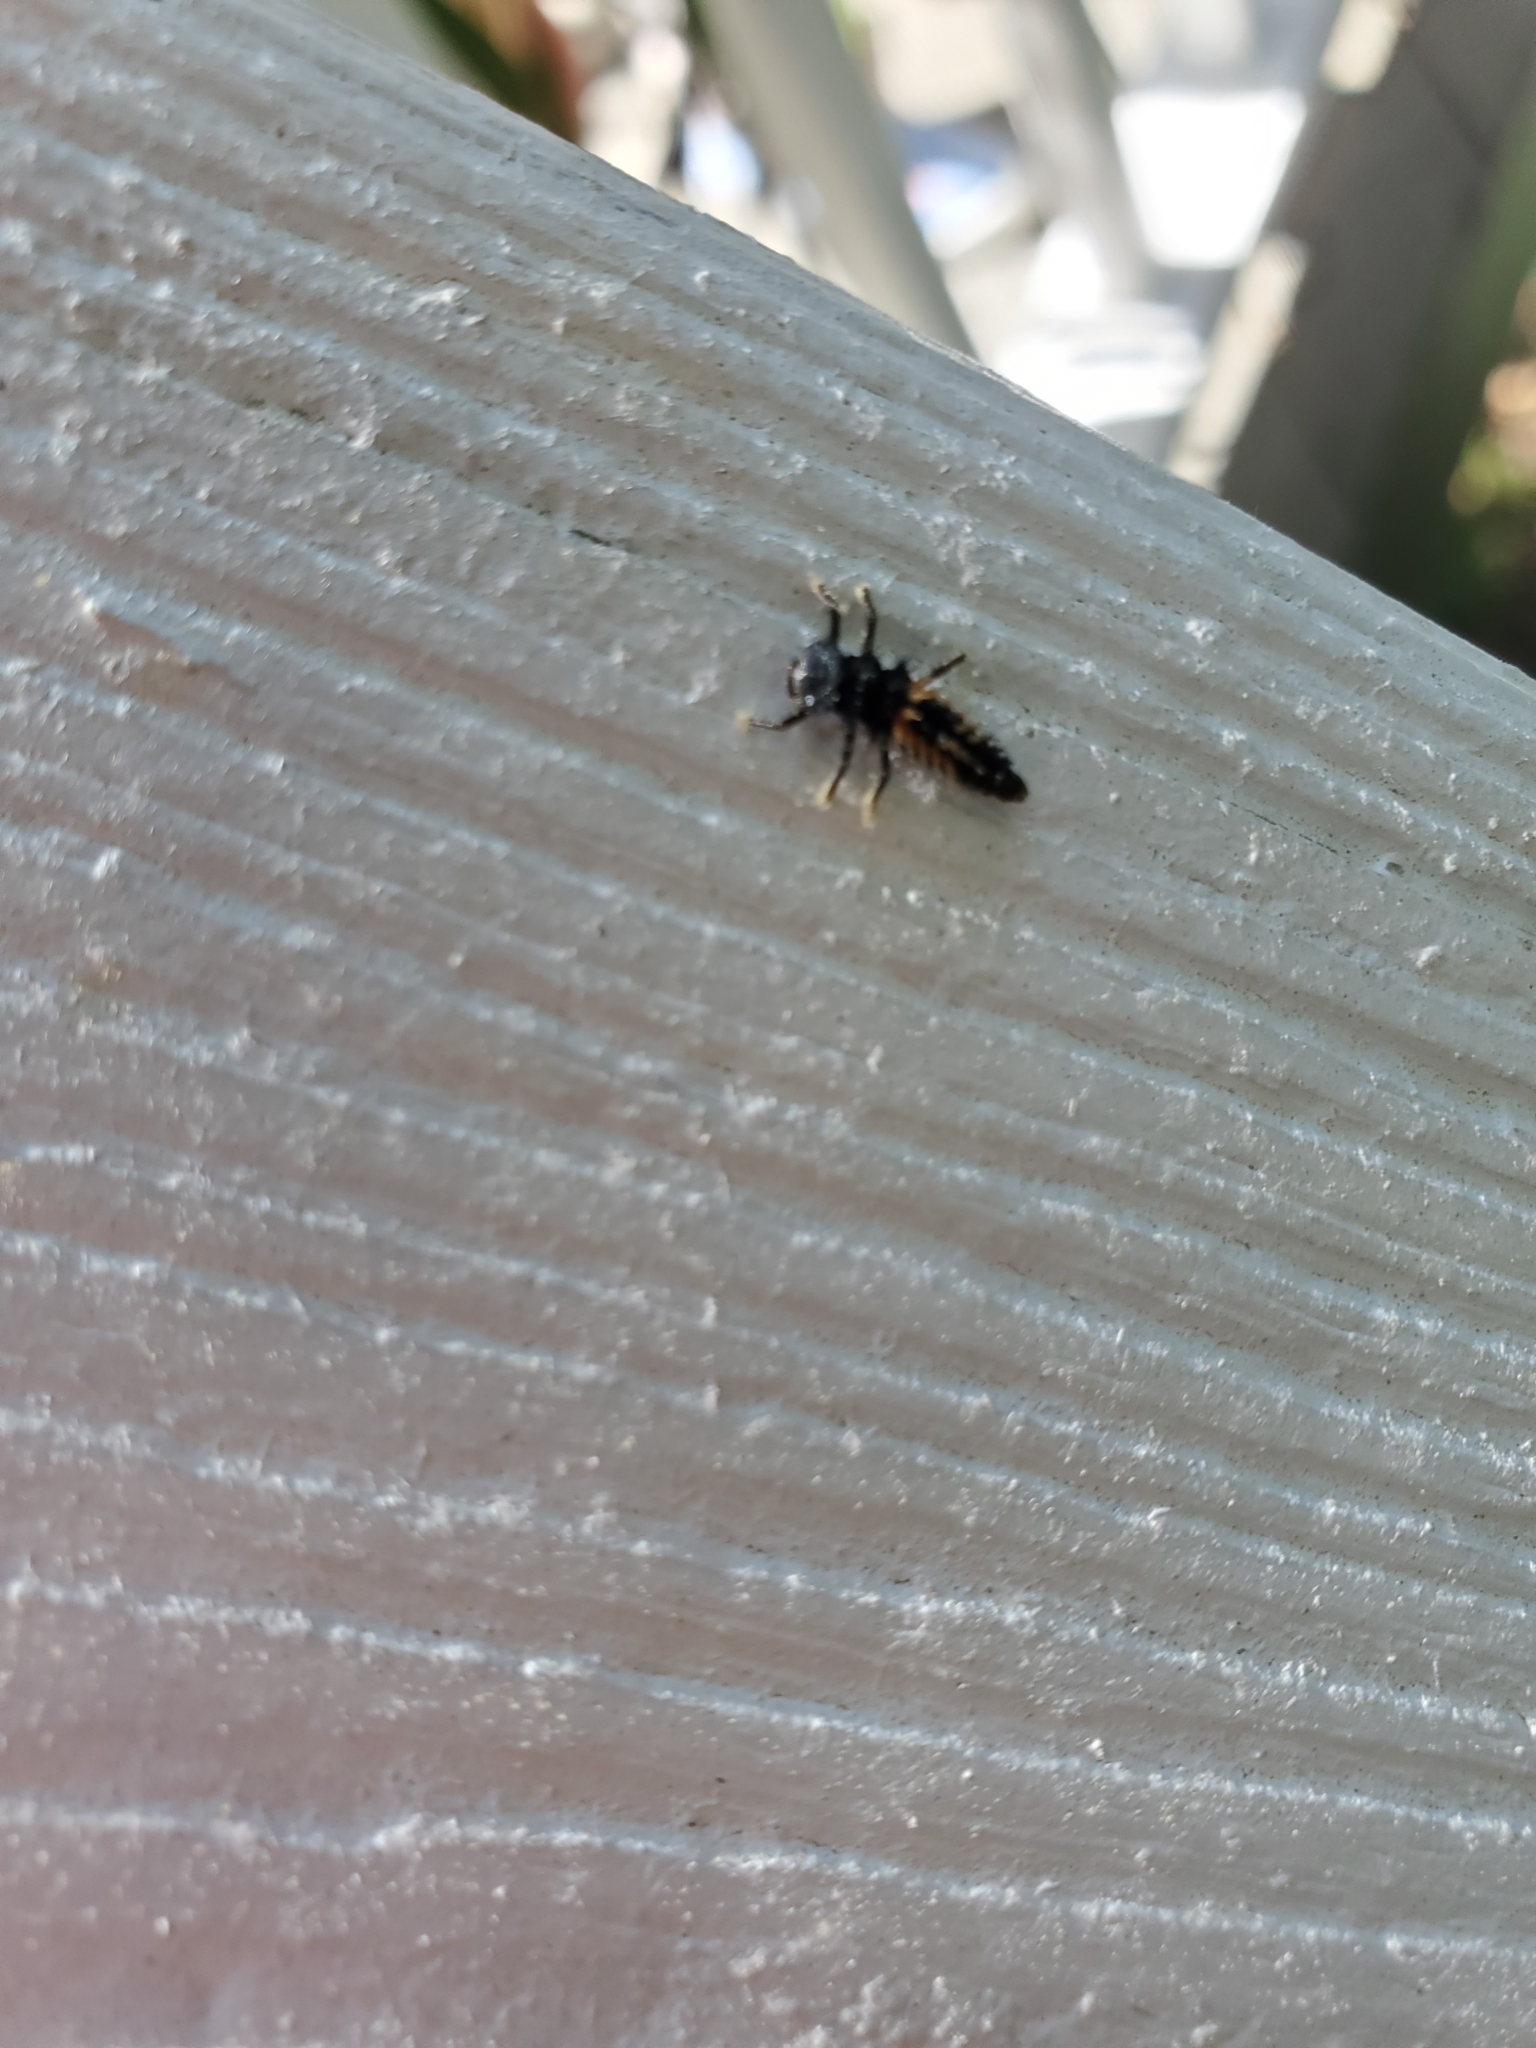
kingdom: Animalia
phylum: Arthropoda
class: Insecta
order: Coleoptera
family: Coccinellidae
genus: Harmonia
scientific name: Harmonia axyridis
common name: Harlequin ladybird
